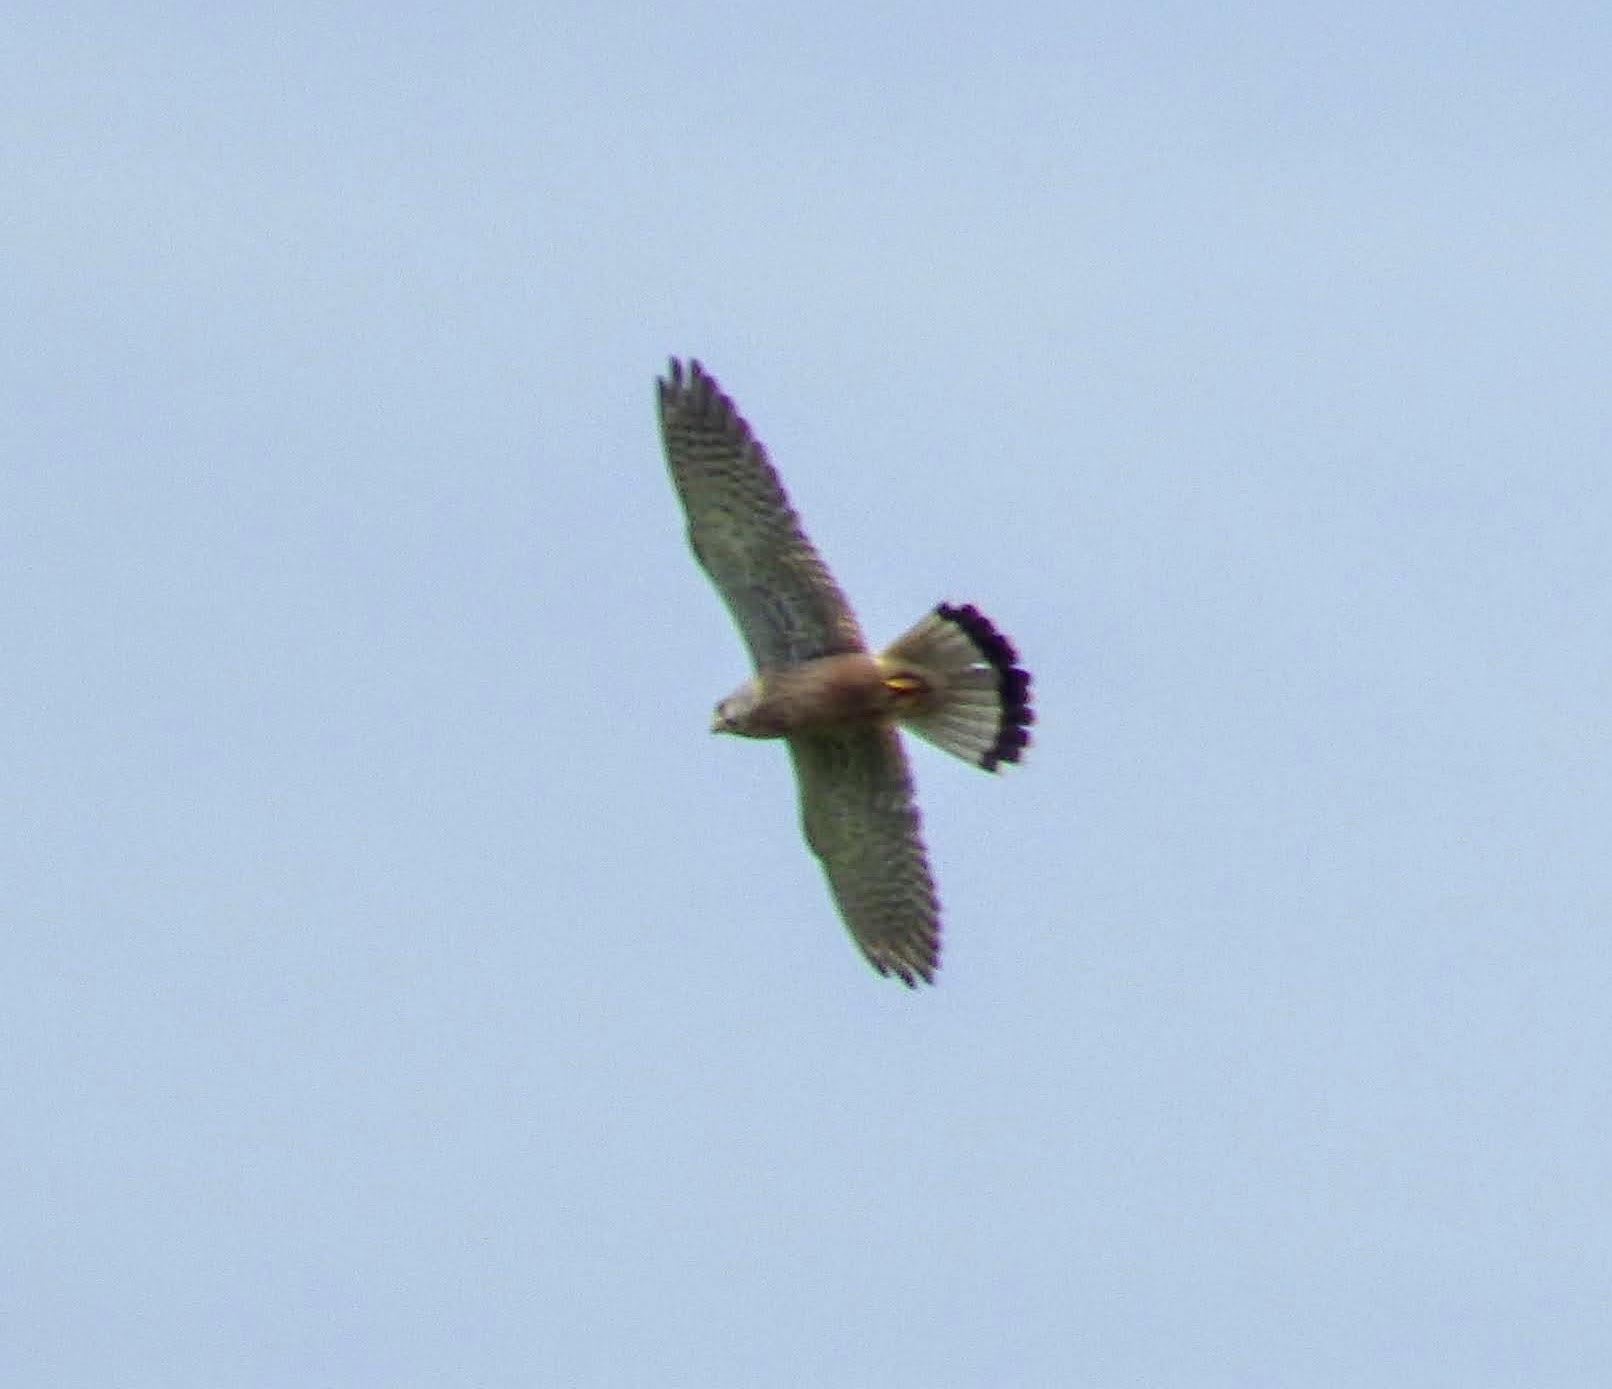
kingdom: Animalia
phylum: Chordata
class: Aves
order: Falconiformes
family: Falconidae
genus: Falco
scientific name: Falco tinnunculus
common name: Common kestrel
